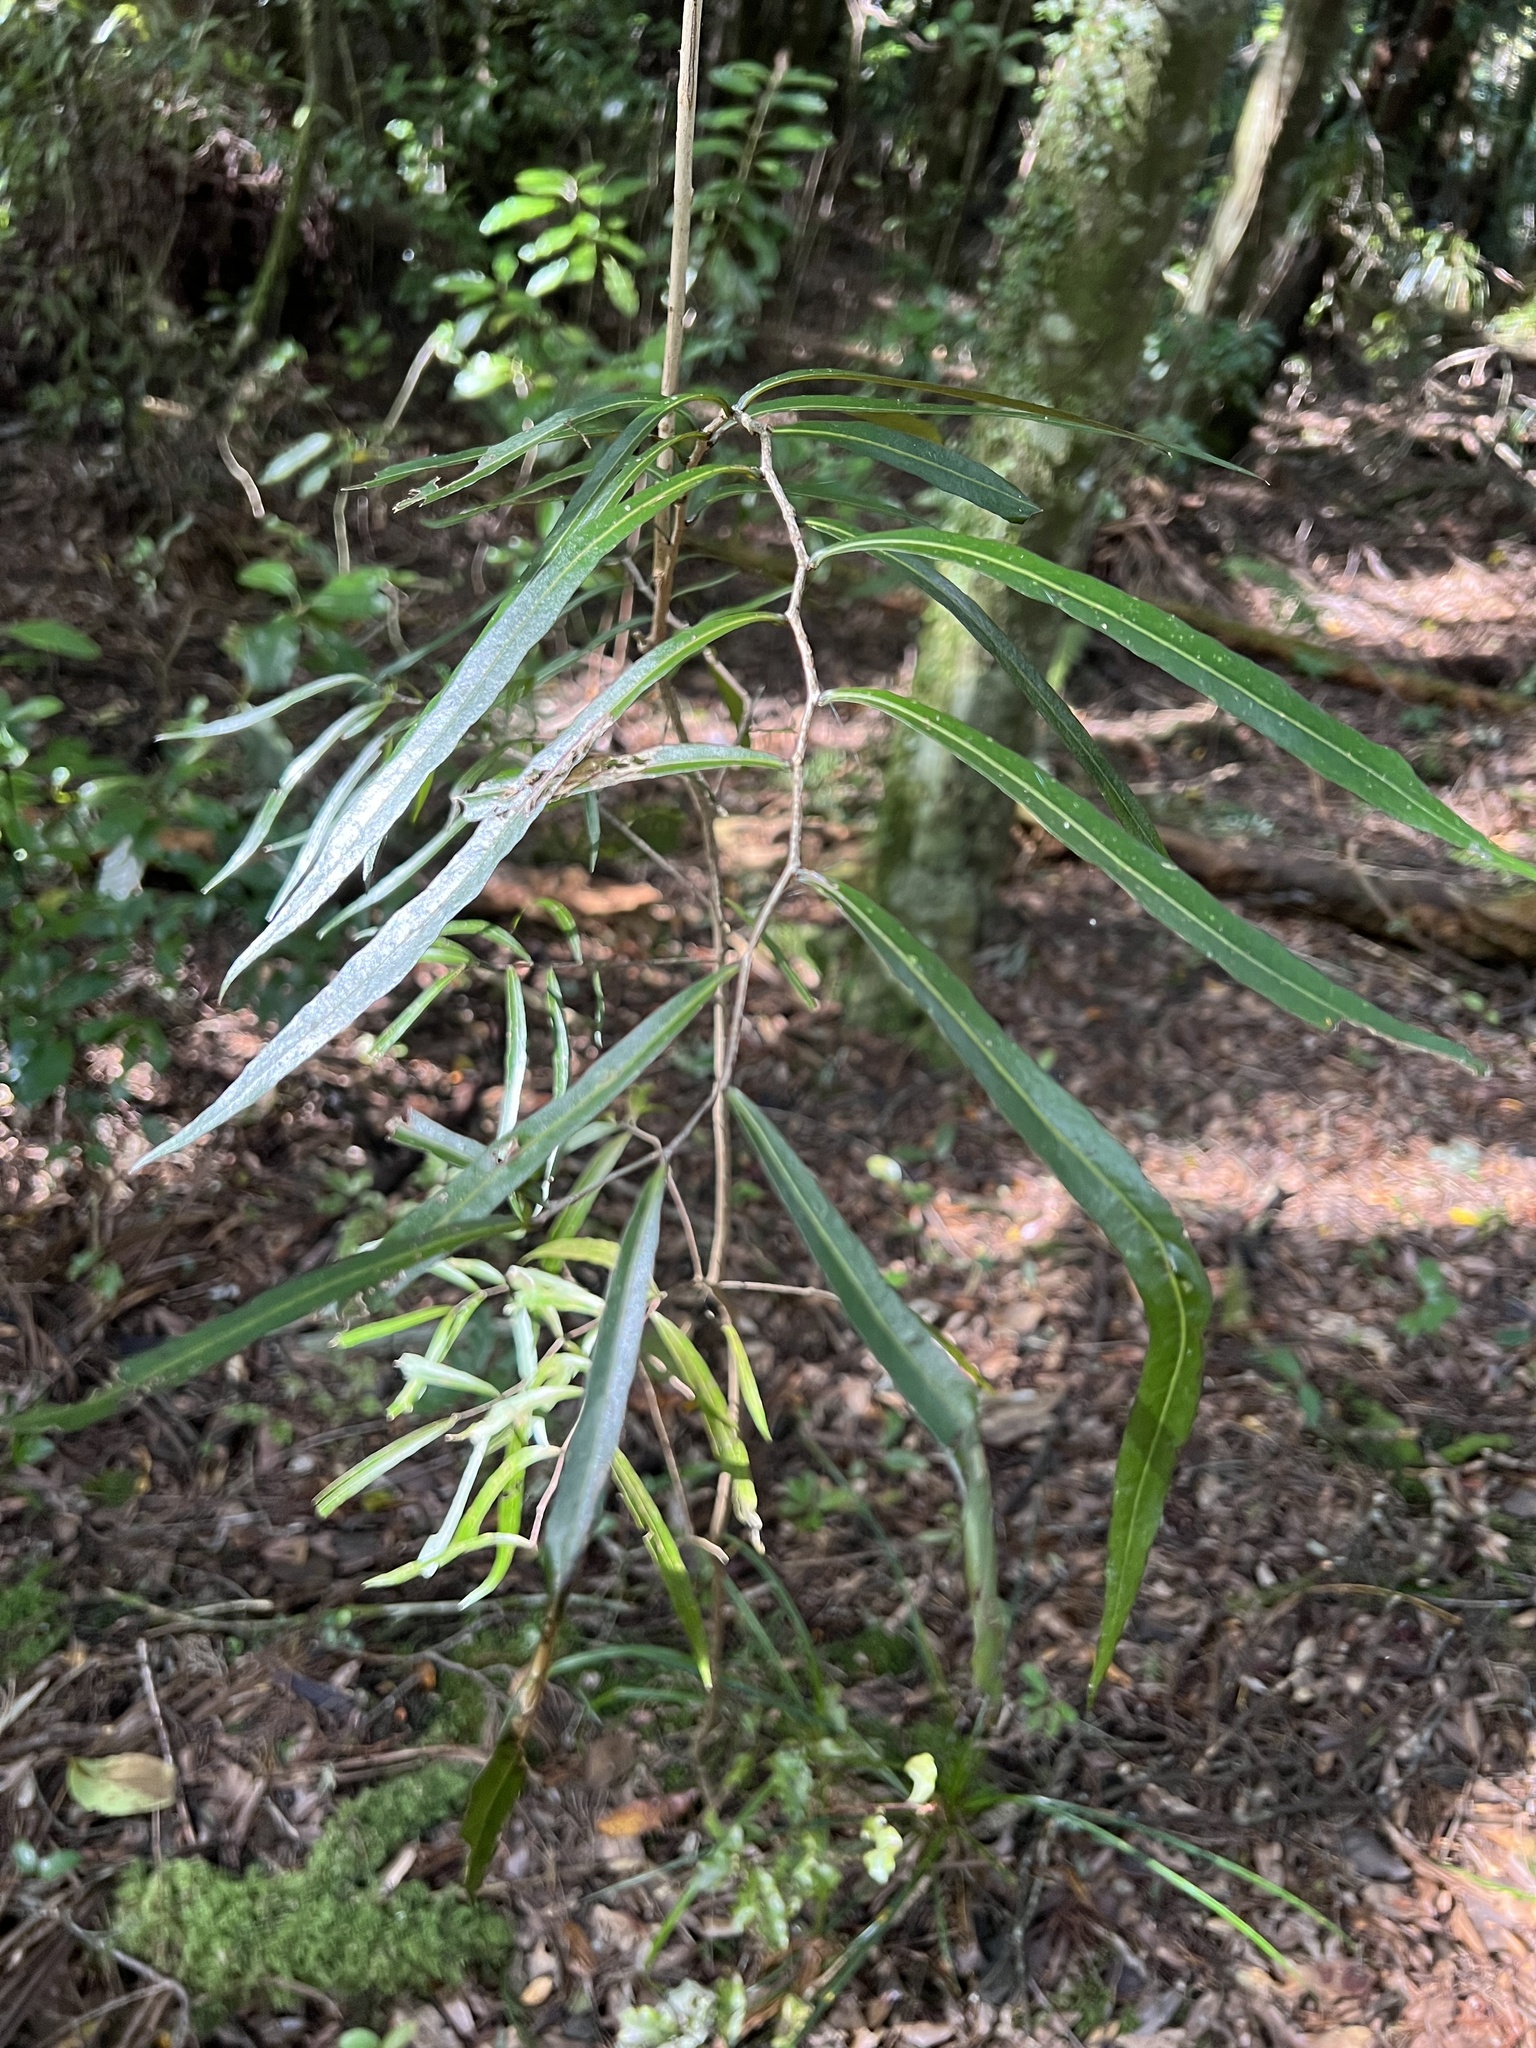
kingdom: Plantae
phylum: Tracheophyta
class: Magnoliopsida
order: Santalales
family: Nanodeaceae
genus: Mida
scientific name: Mida salicifolia
